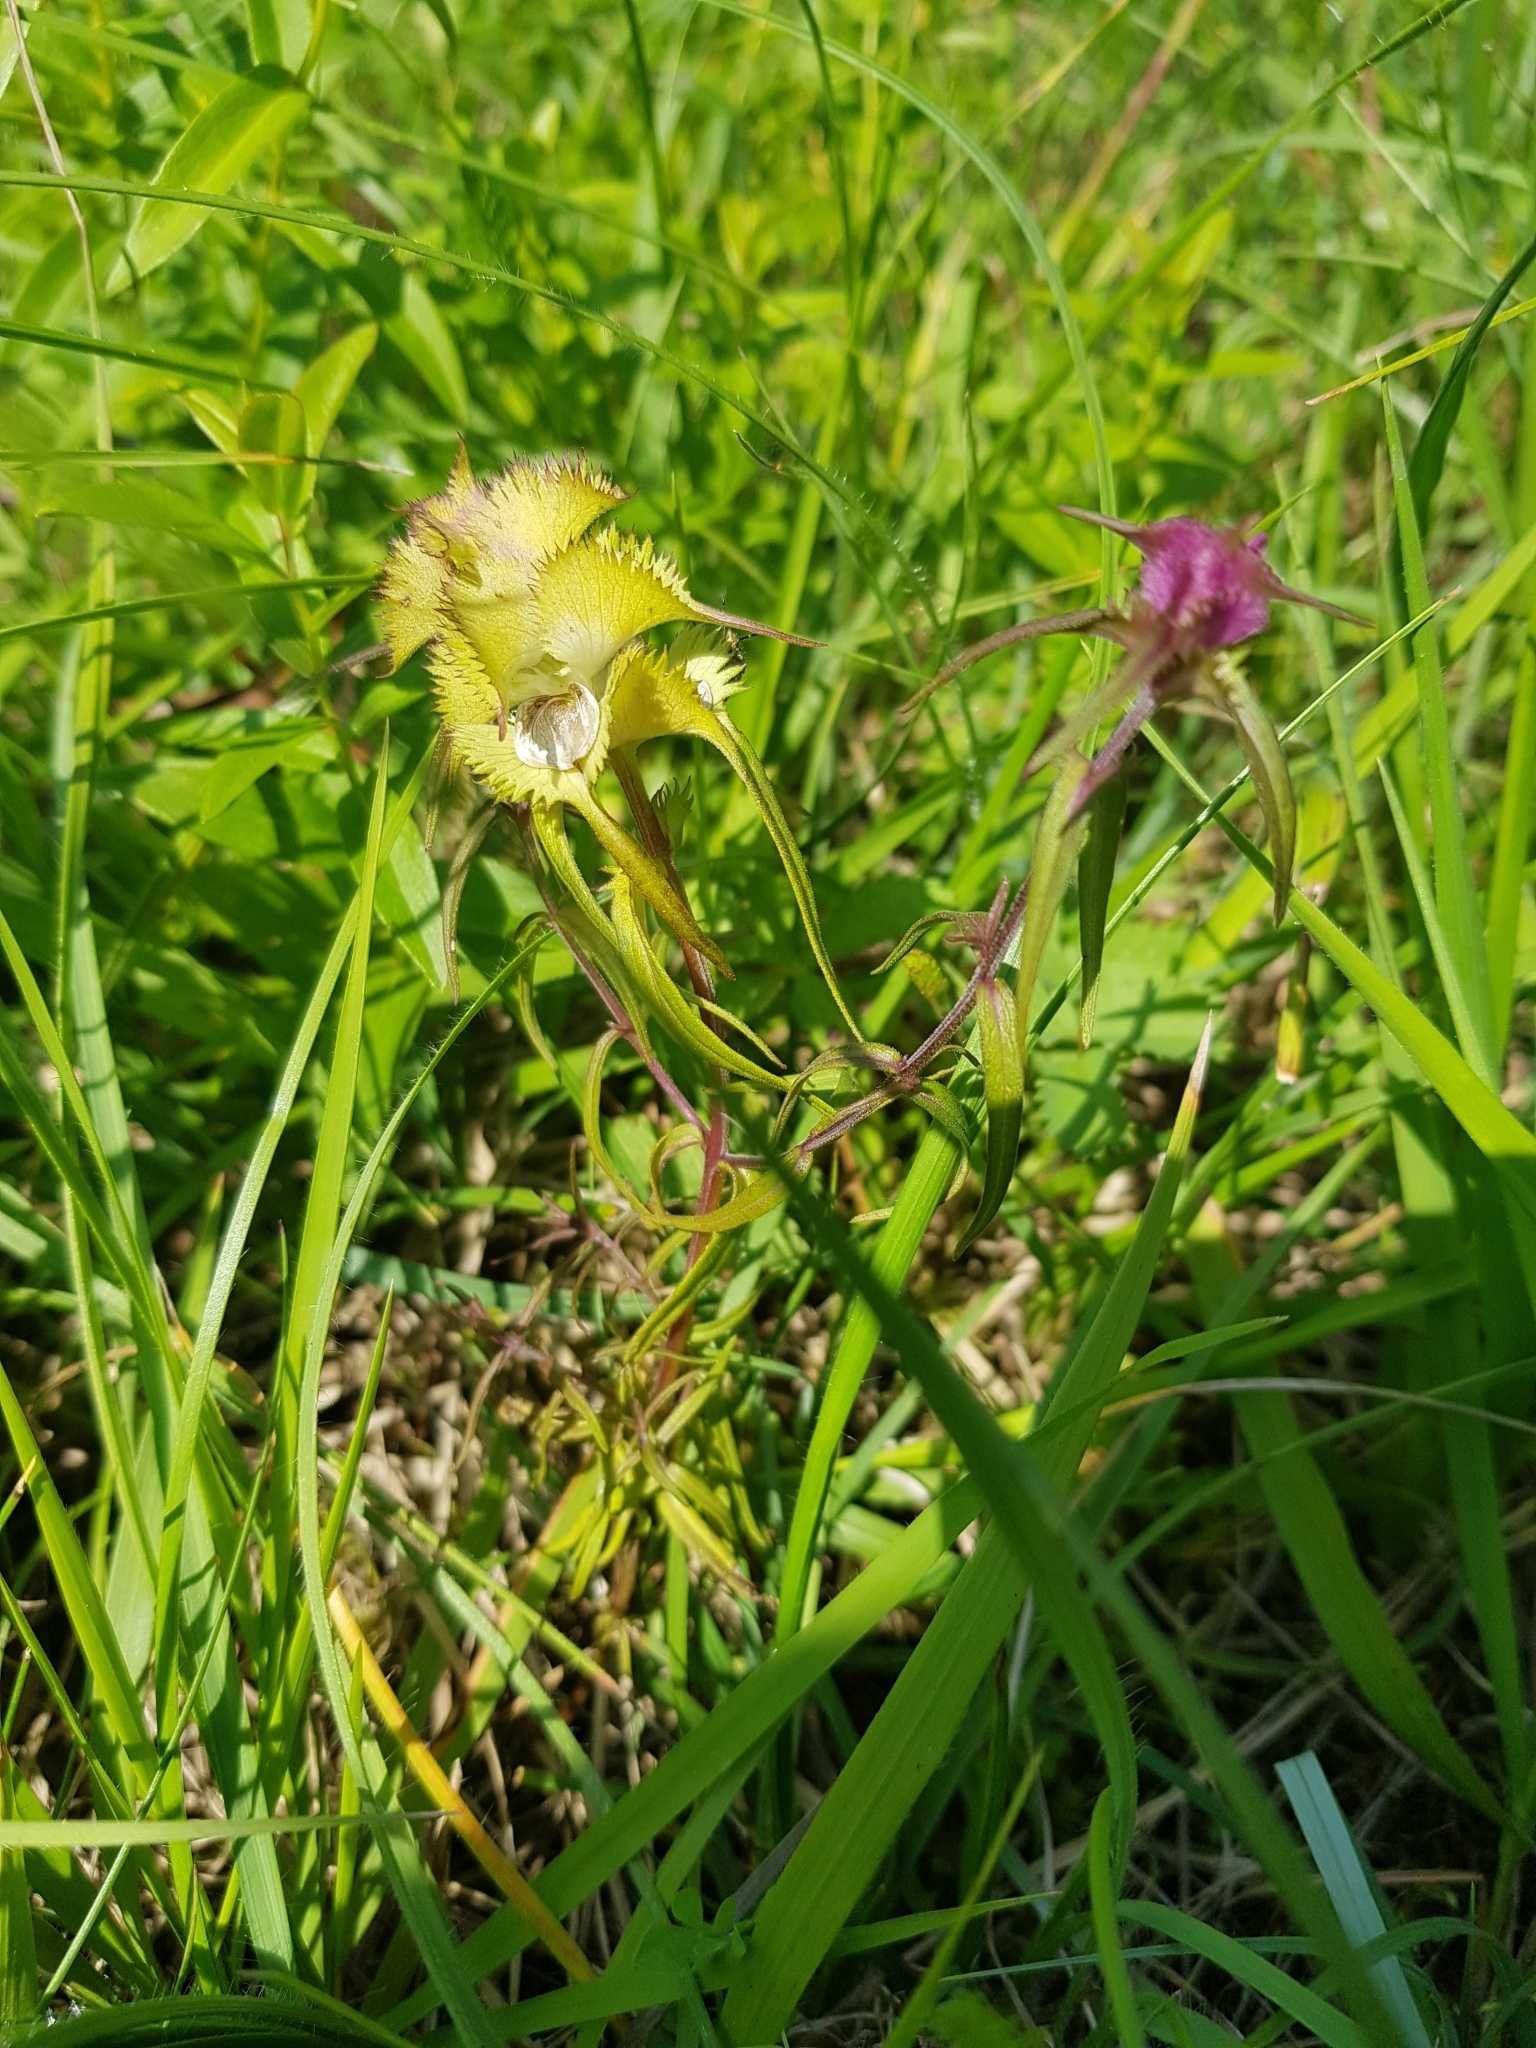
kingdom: Plantae
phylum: Tracheophyta
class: Magnoliopsida
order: Lamiales
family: Orobanchaceae
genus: Melampyrum
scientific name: Melampyrum cristatum
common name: Crested cow-wheat
